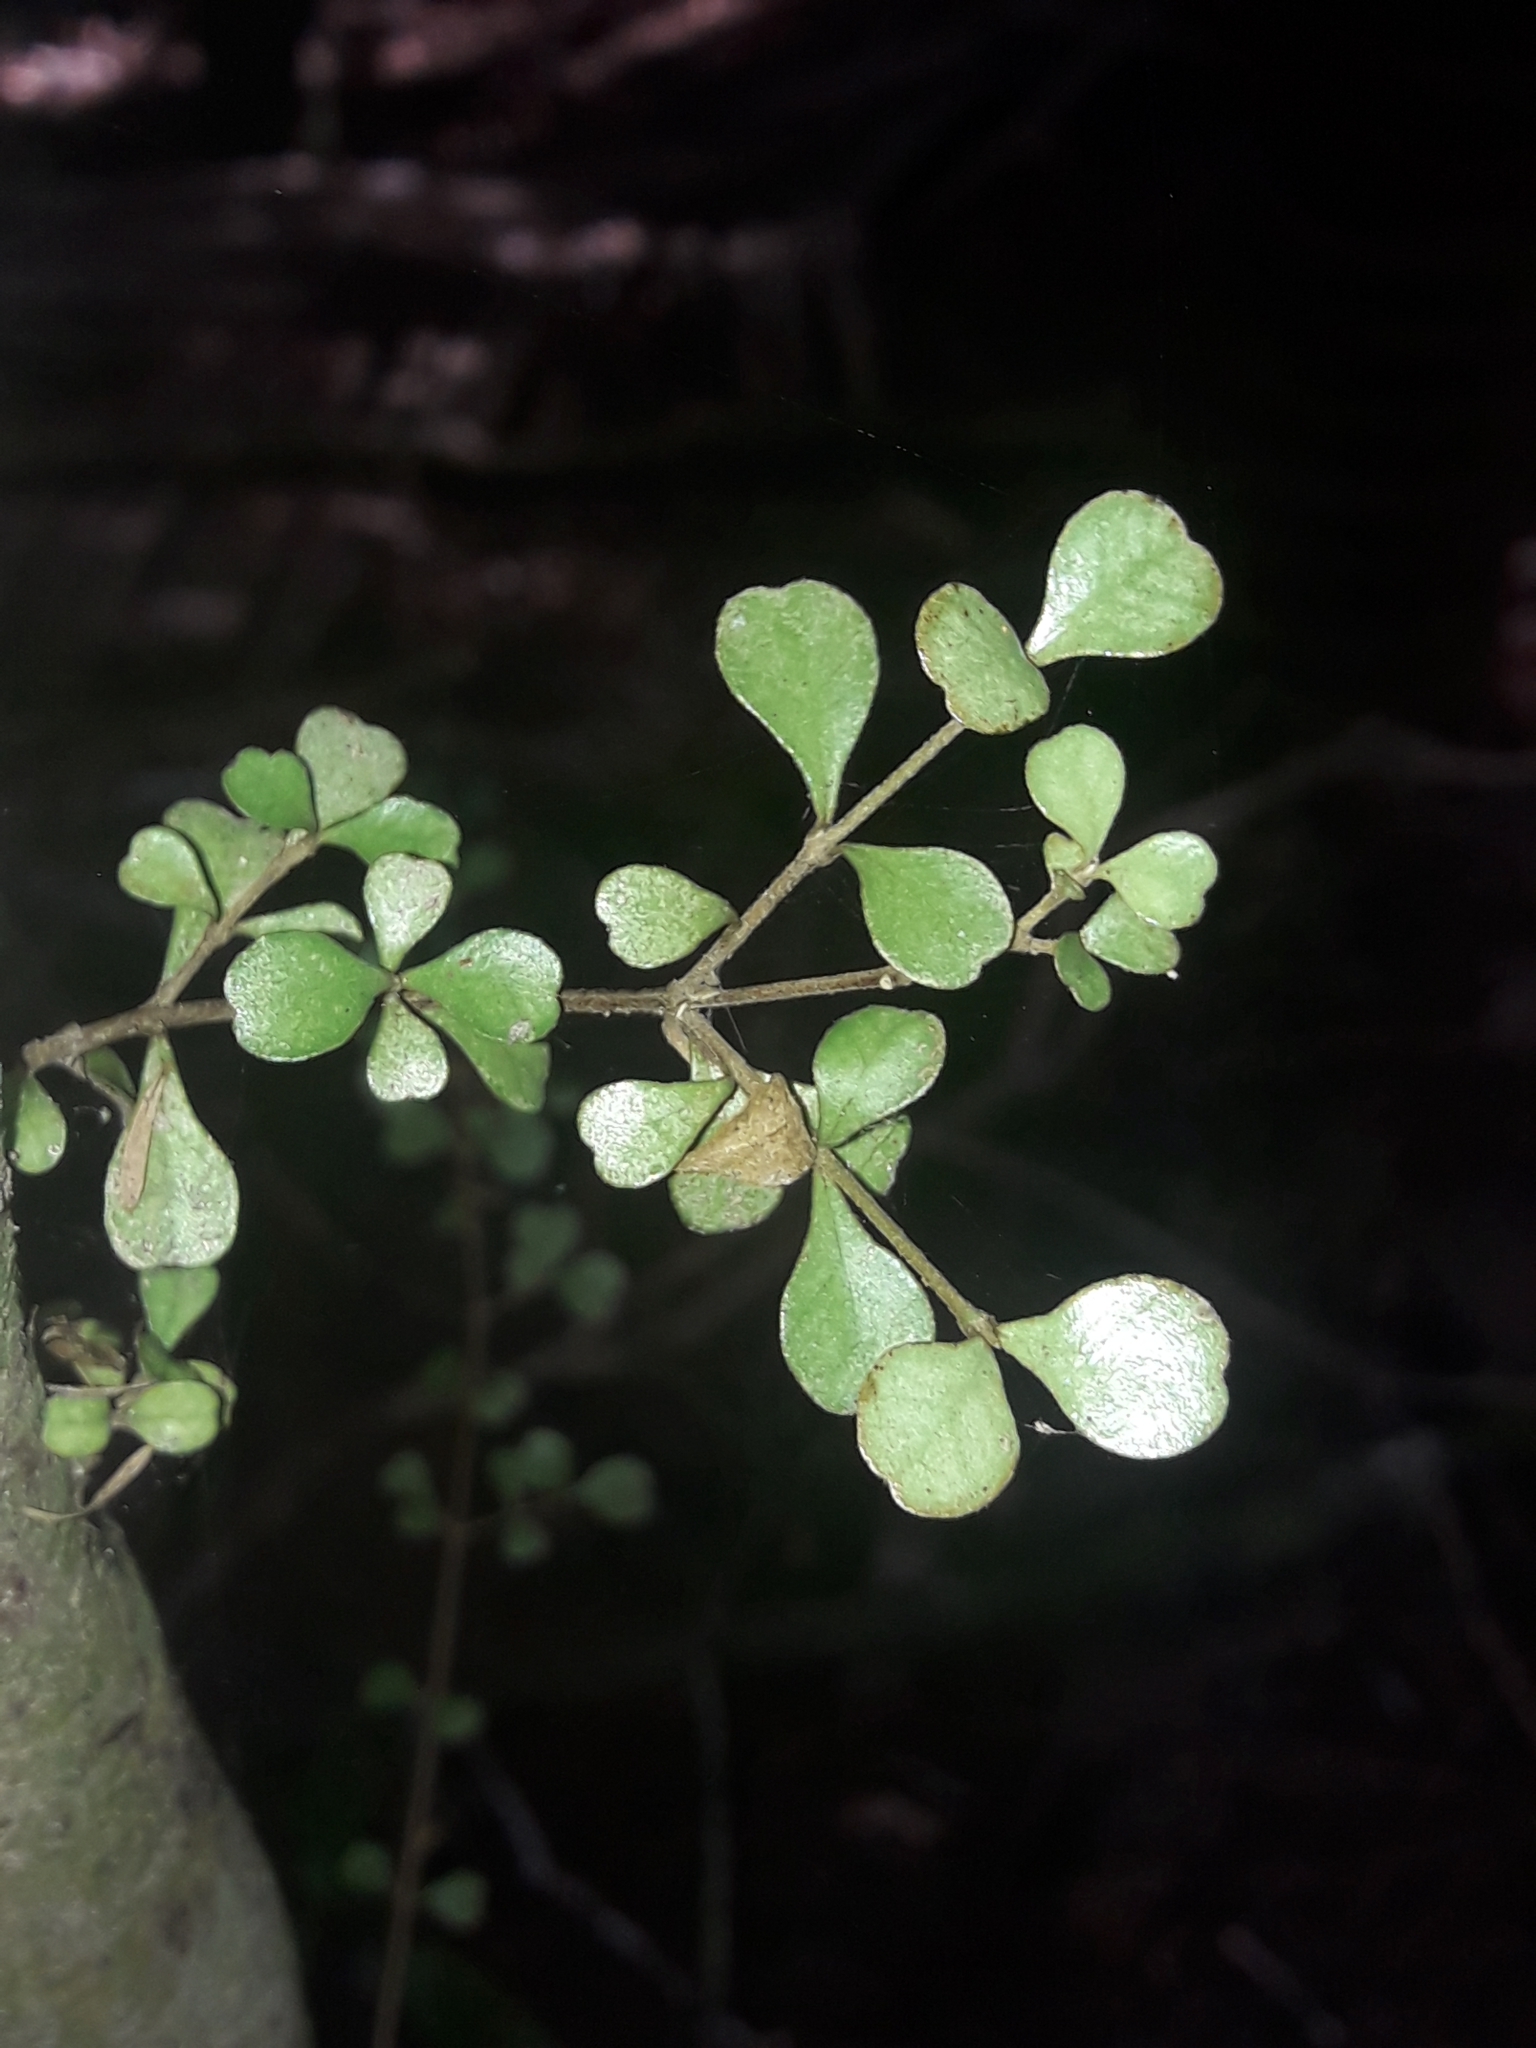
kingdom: Plantae
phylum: Tracheophyta
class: Magnoliopsida
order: Myrtales
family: Myrtaceae
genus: Lophomyrtus
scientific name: Lophomyrtus obcordata
